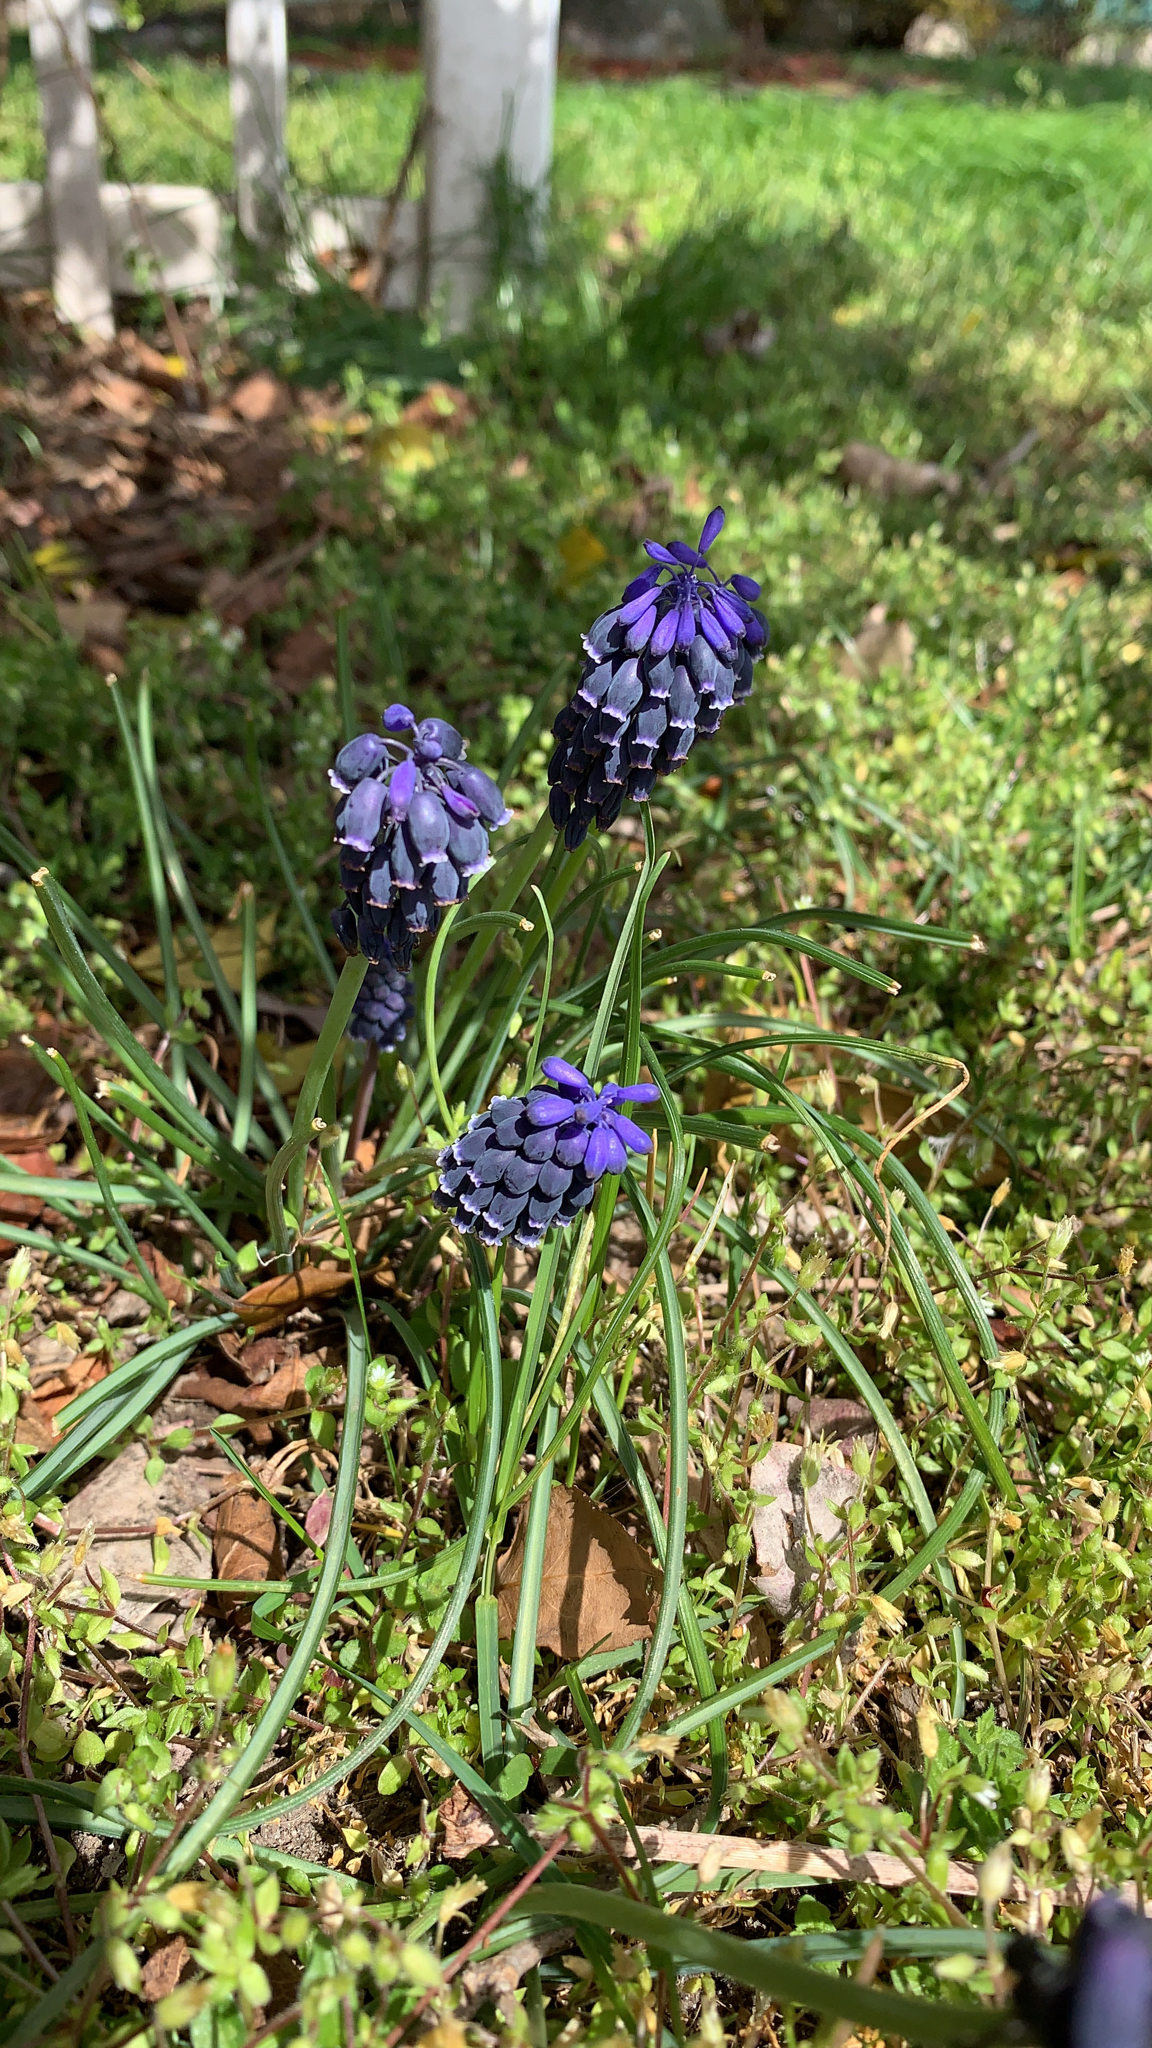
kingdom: Plantae
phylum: Tracheophyta
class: Liliopsida
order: Asparagales
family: Asparagaceae
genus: Muscari
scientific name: Muscari neglectum
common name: Grape-hyacinth
